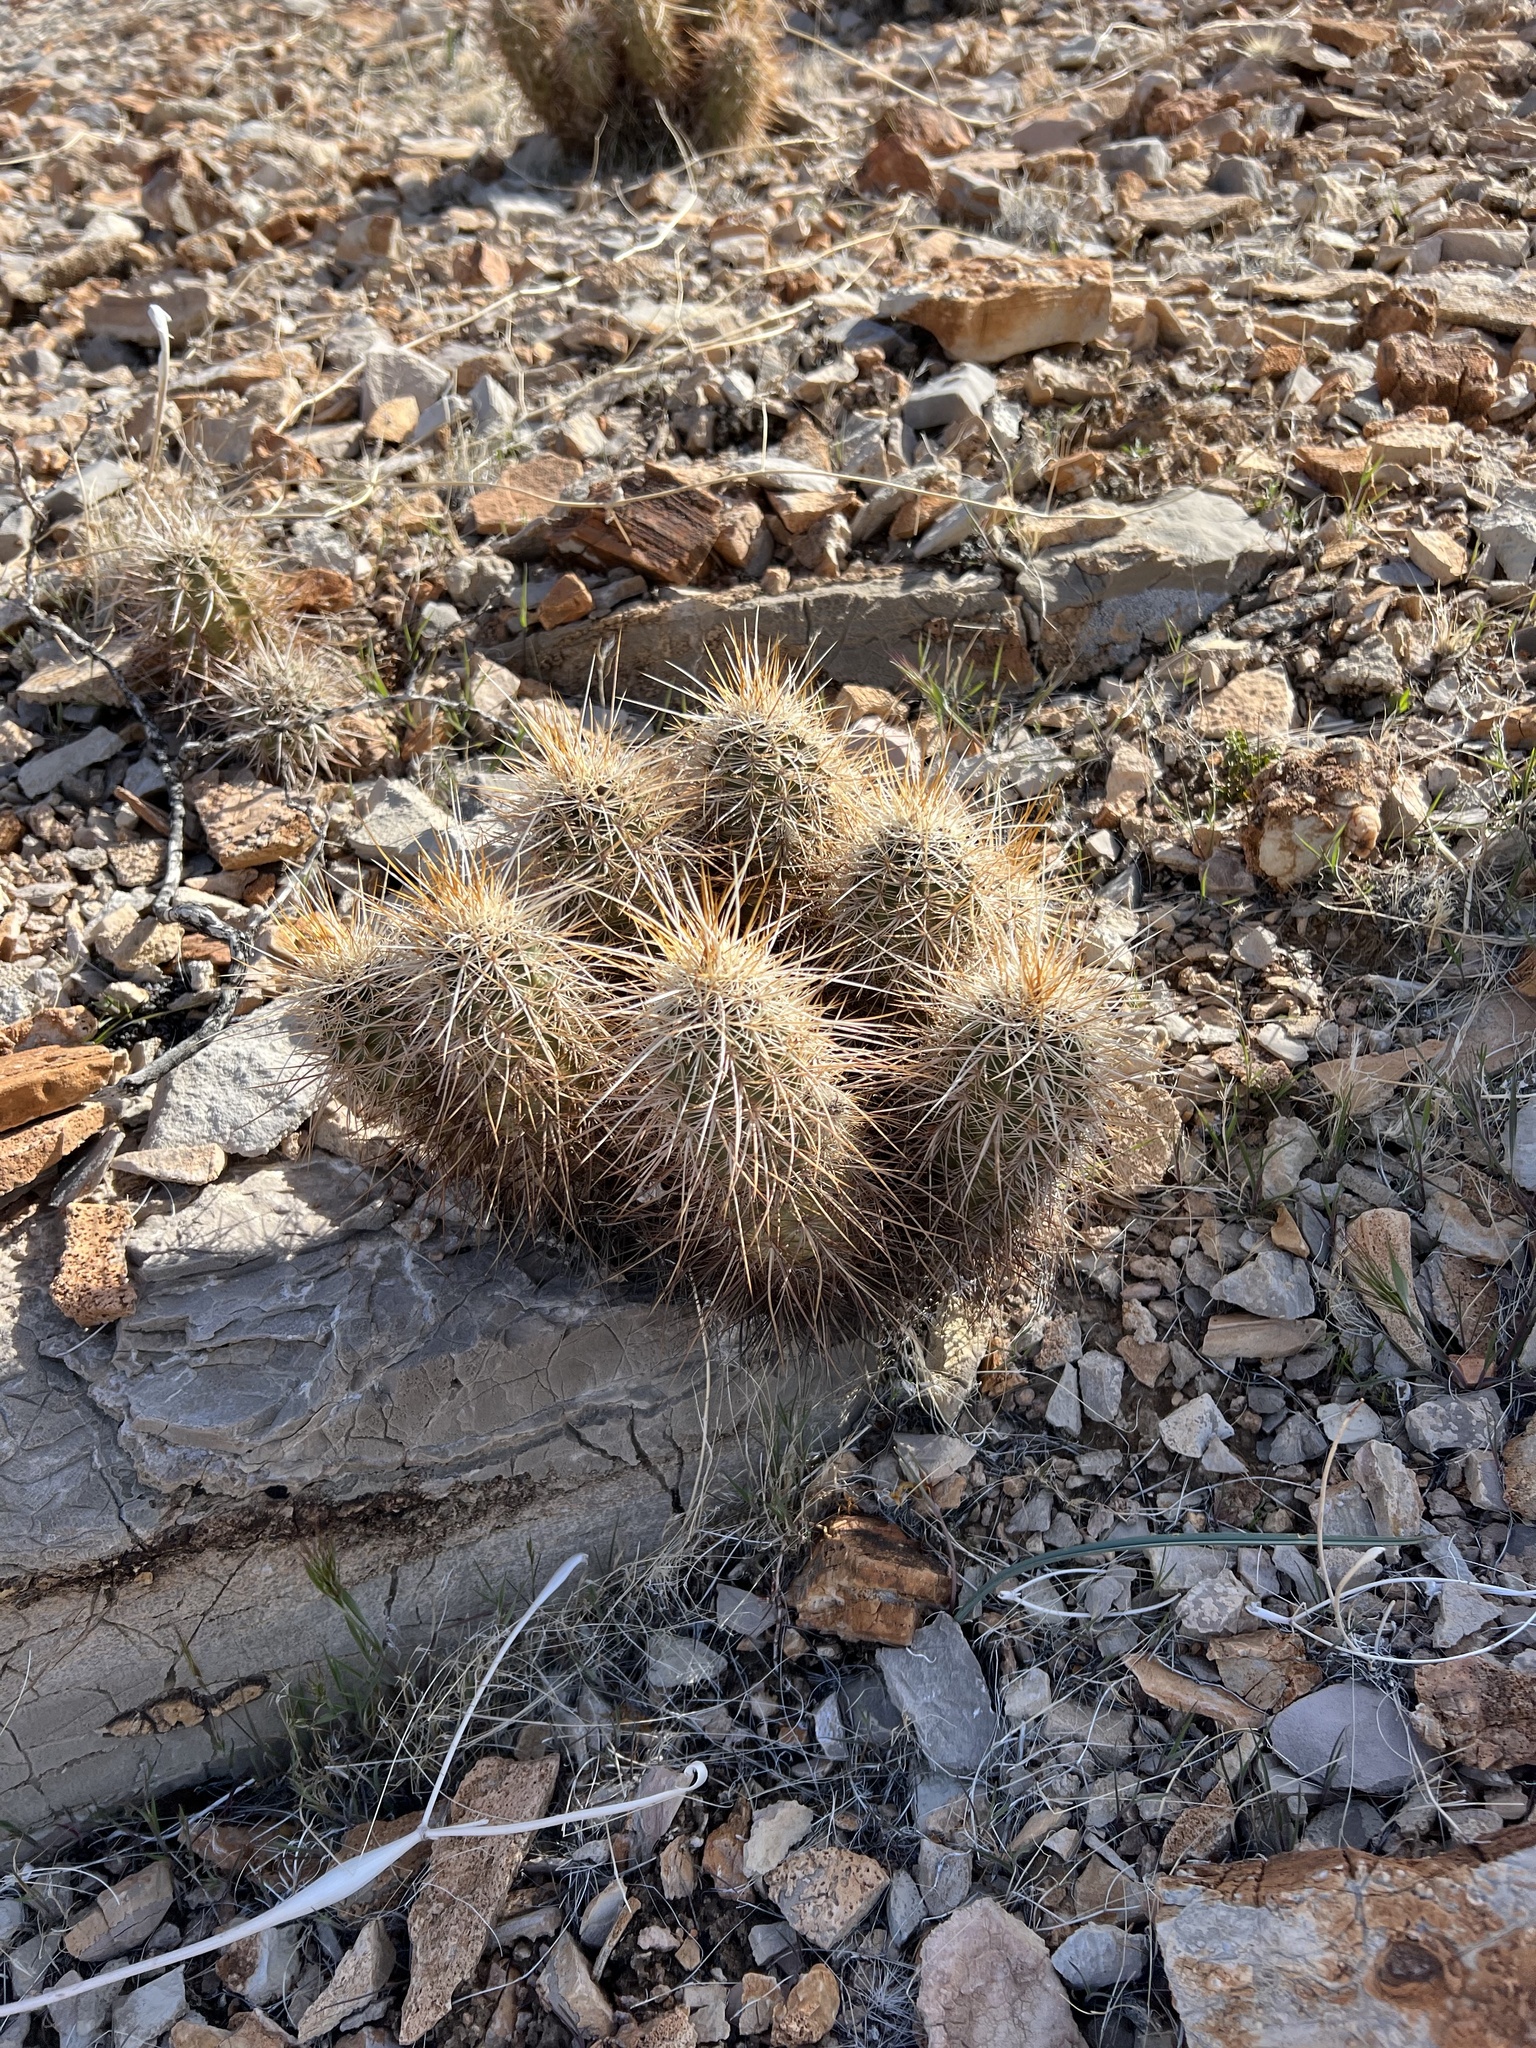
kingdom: Plantae
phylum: Tracheophyta
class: Magnoliopsida
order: Caryophyllales
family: Cactaceae
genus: Echinocereus
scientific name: Echinocereus engelmannii
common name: Engelmann's hedgehog cactus
